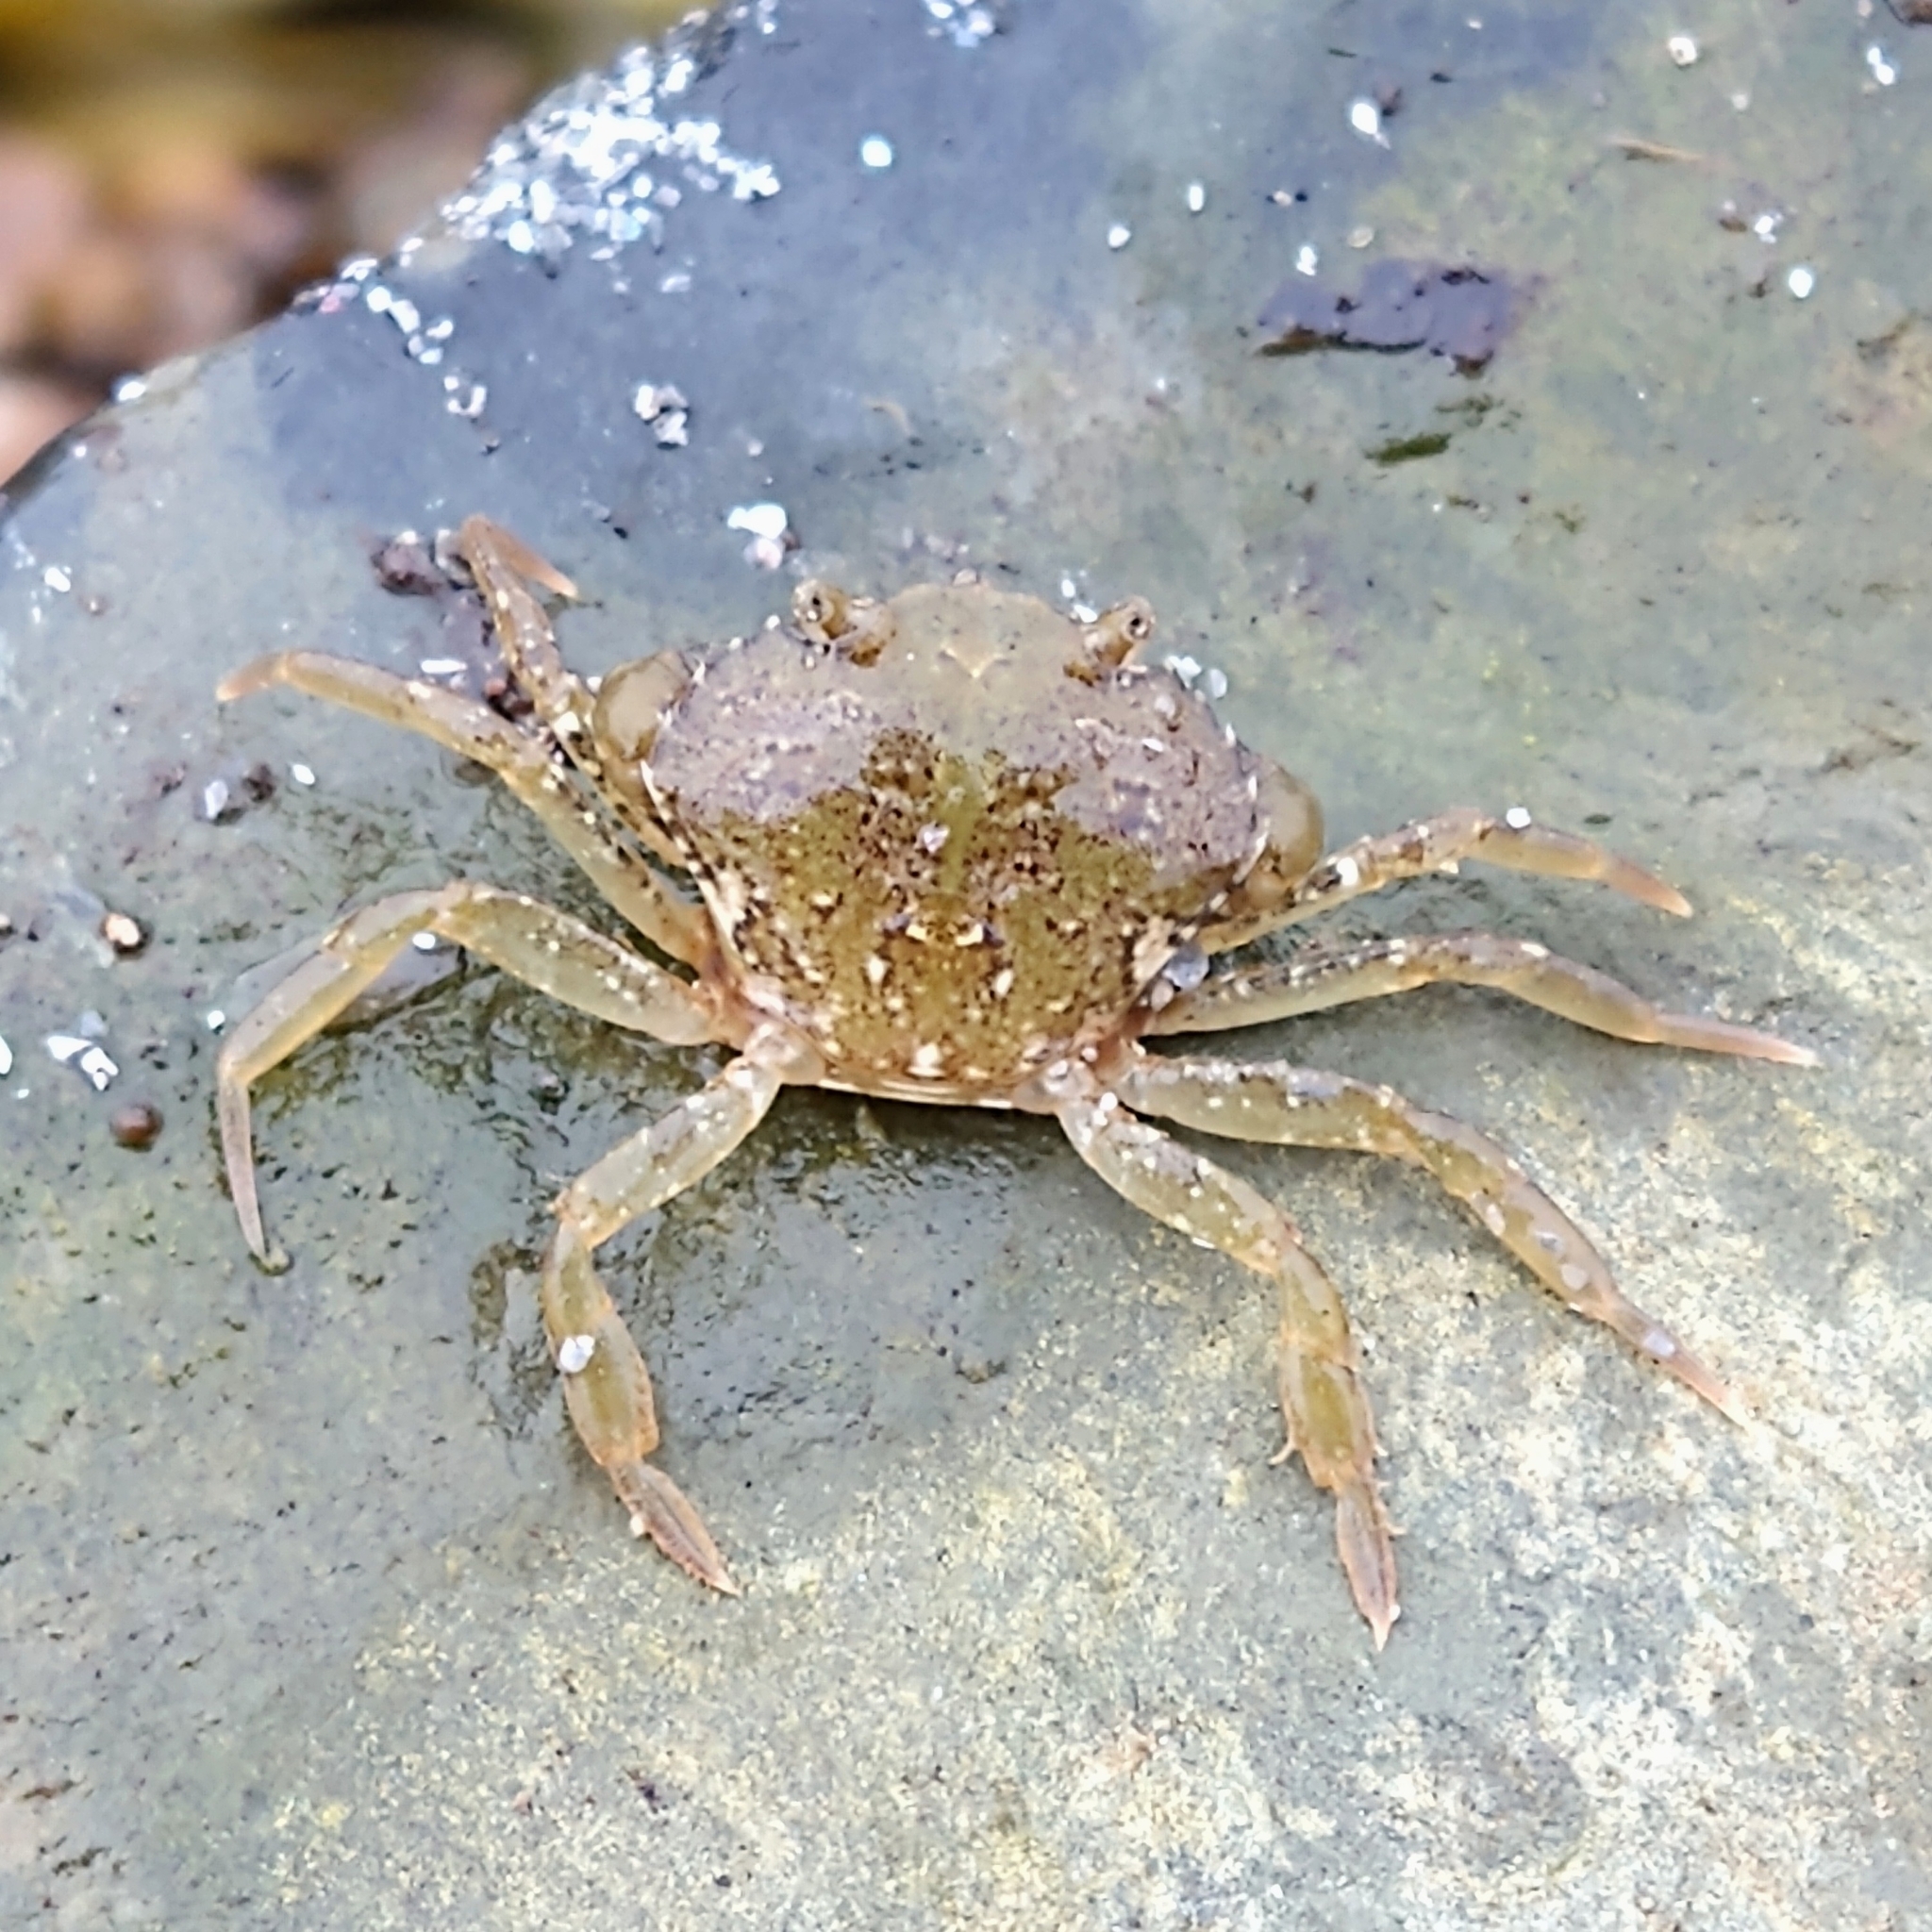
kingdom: Animalia
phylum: Arthropoda
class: Malacostraca
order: Decapoda
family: Carcinidae
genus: Carcinus
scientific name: Carcinus maenas
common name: European green crab
